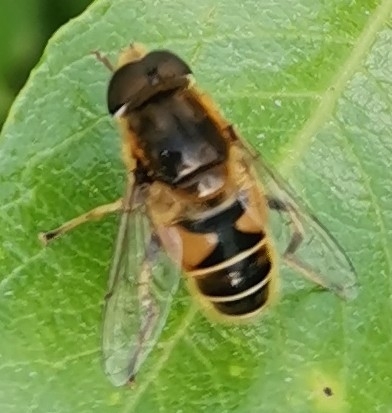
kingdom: Animalia
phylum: Arthropoda
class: Insecta
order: Diptera
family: Syrphidae
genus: Eristalis
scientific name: Eristalis nemorum
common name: Orange-spined drone fly
